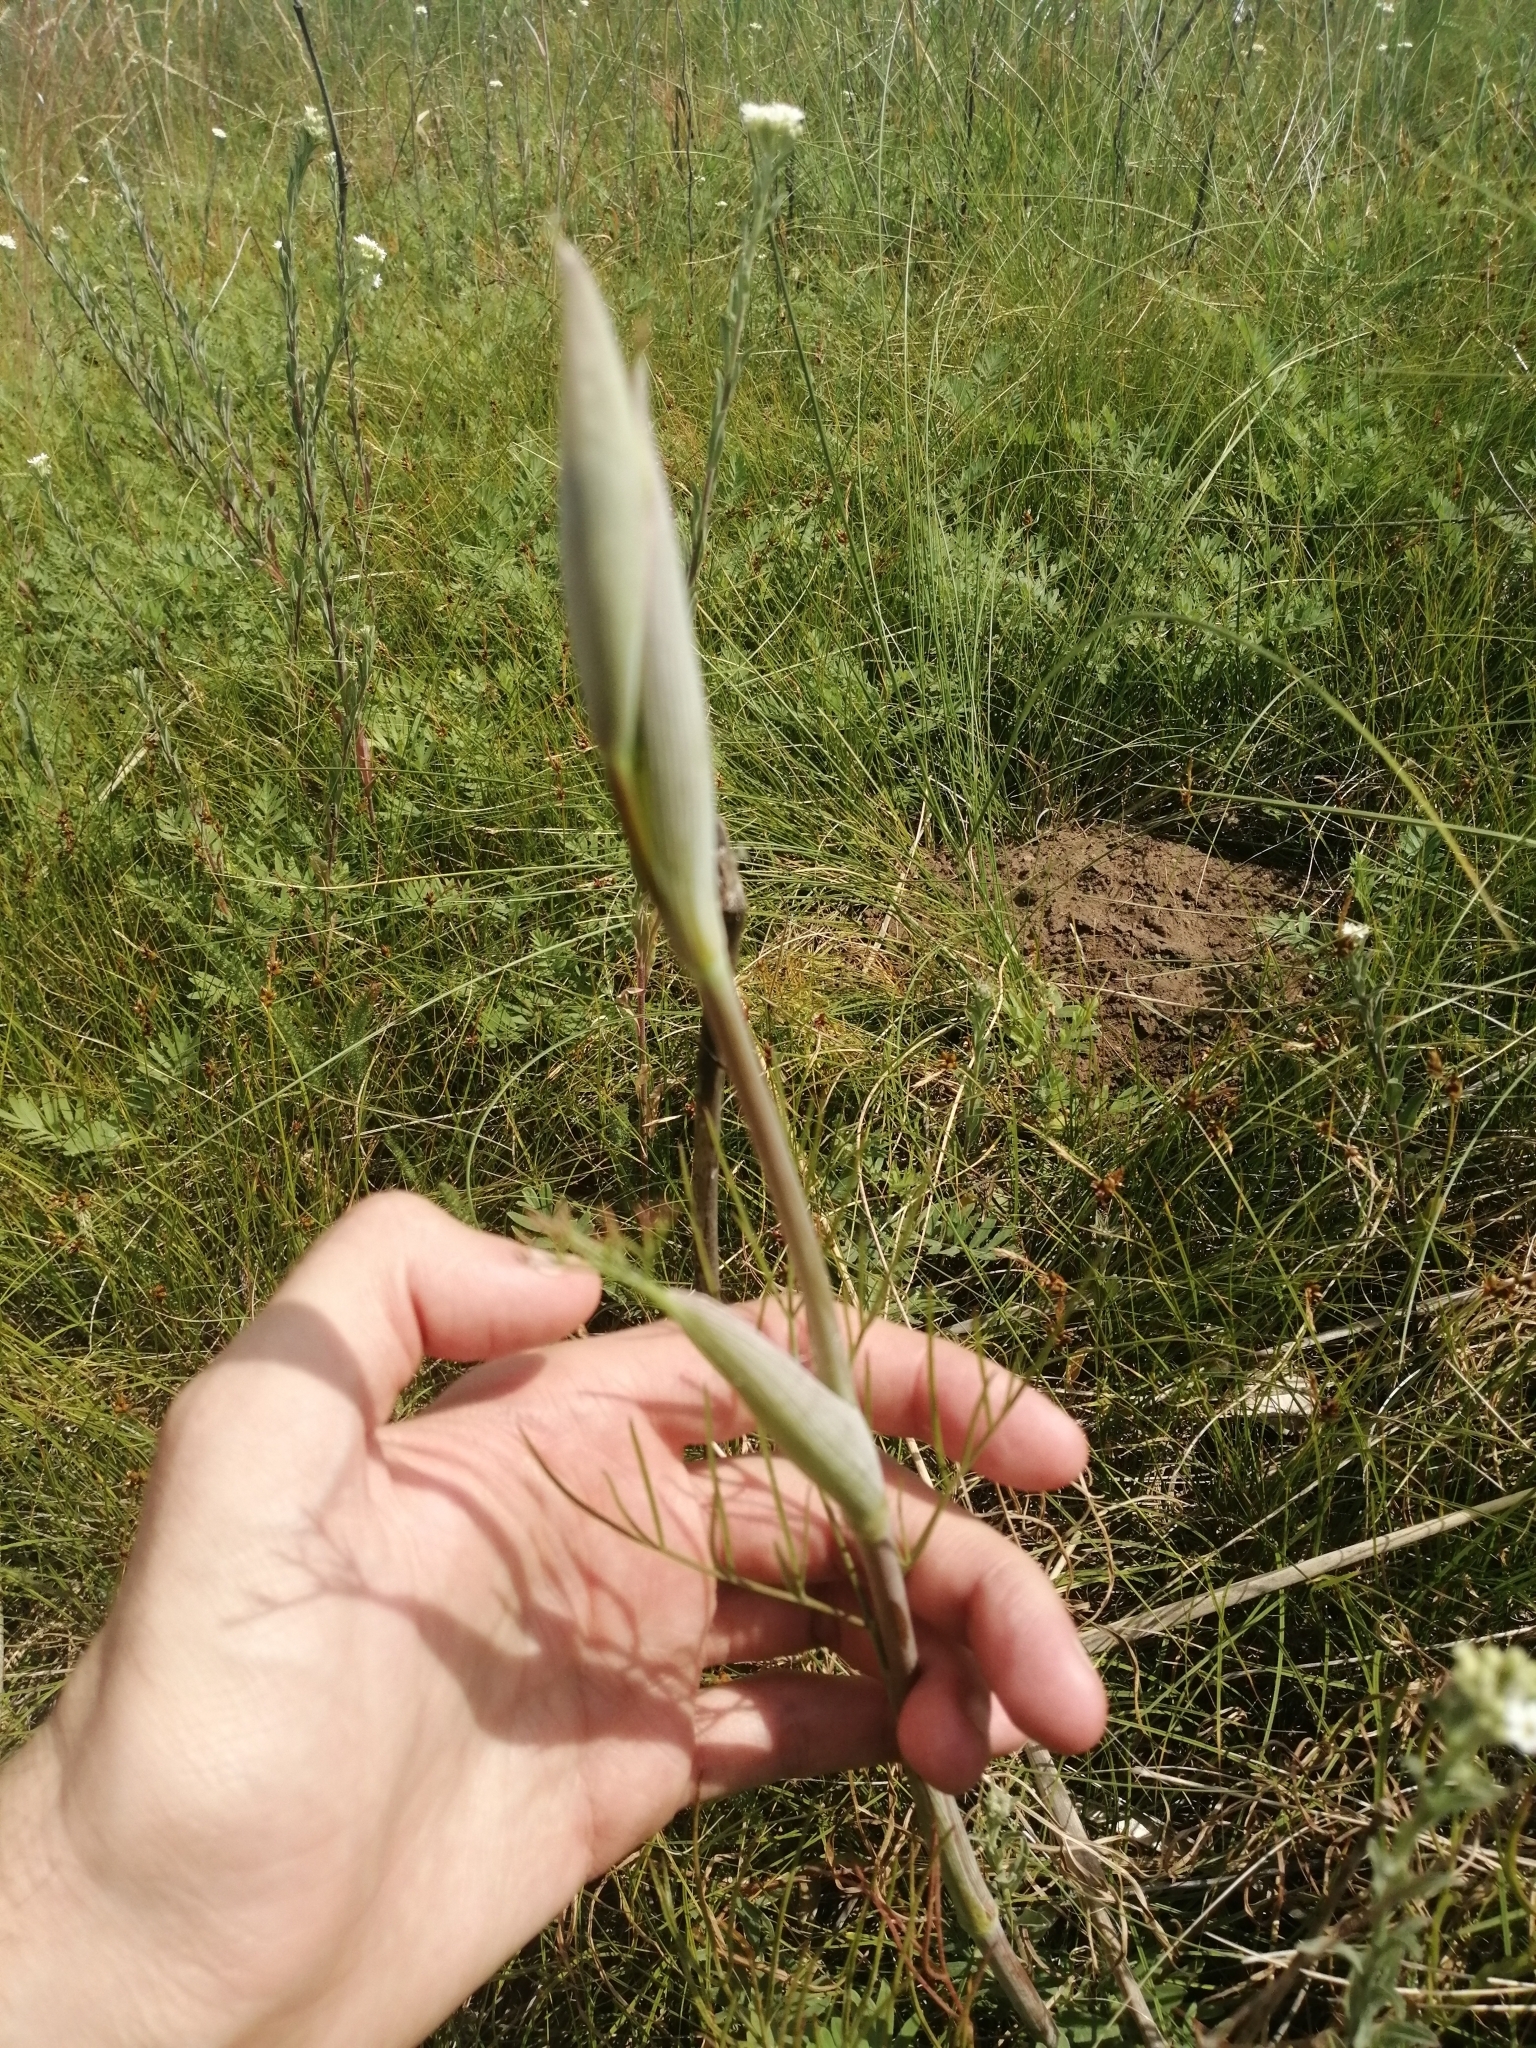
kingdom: Plantae
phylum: Tracheophyta
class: Magnoliopsida
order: Apiales
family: Apiaceae
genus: Ferula
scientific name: Ferula tatarica
